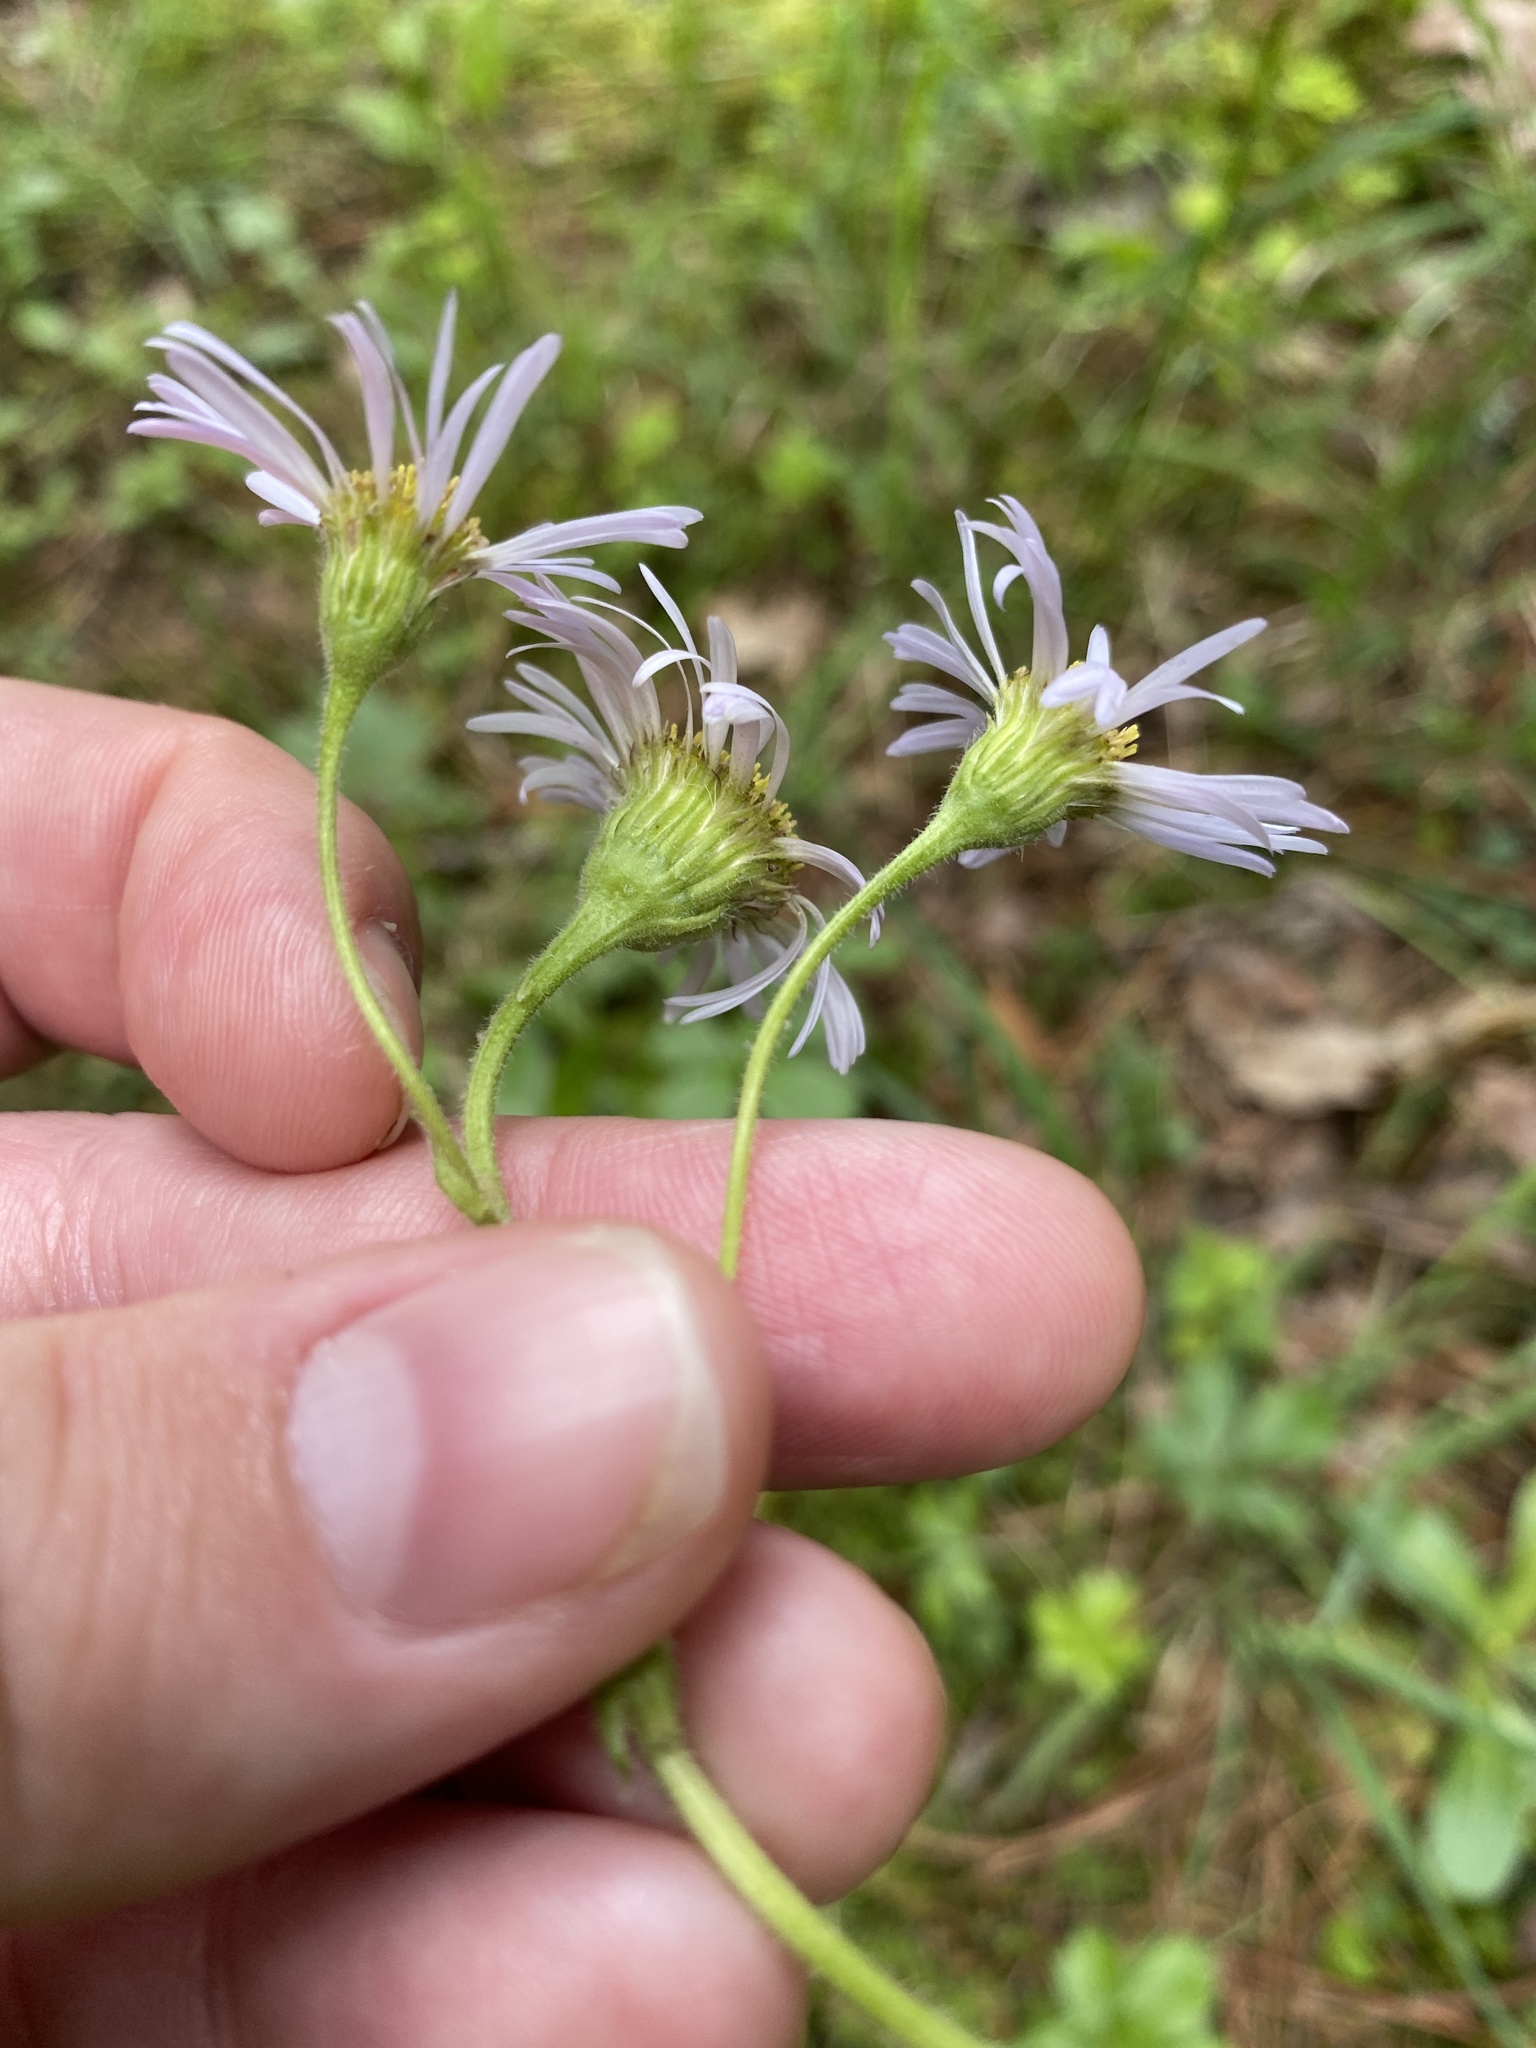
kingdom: Plantae
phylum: Tracheophyta
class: Magnoliopsida
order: Asterales
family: Asteraceae
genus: Erigeron
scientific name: Erigeron pulchellus
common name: Hairy fleabane
